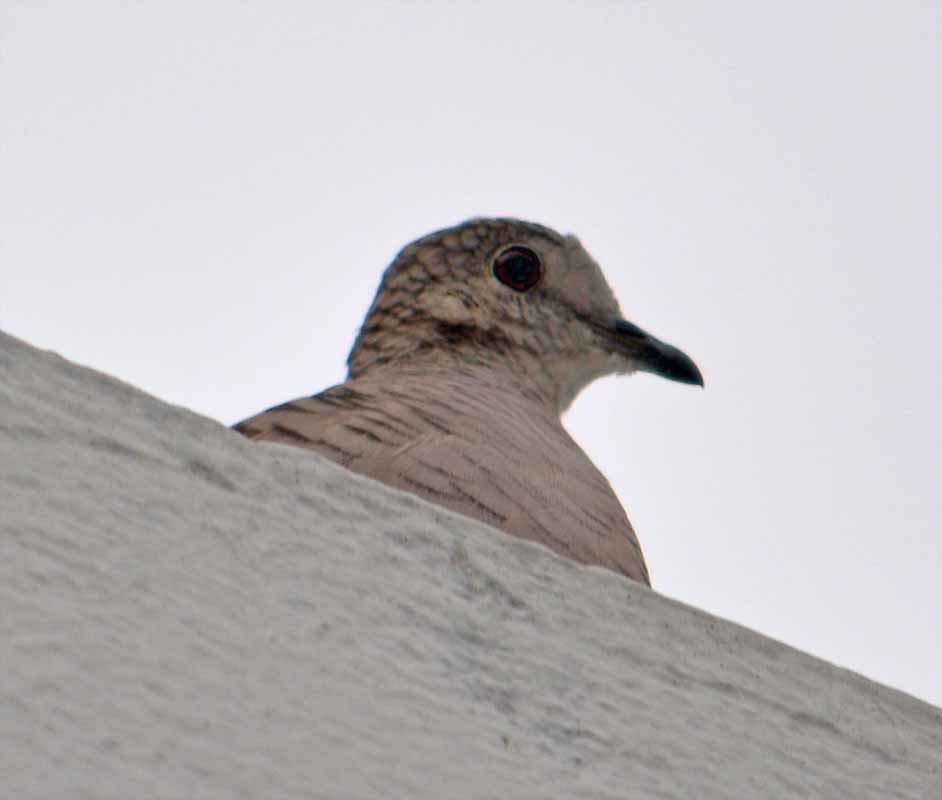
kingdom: Animalia
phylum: Chordata
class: Aves
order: Columbiformes
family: Columbidae
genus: Columbina
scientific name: Columbina inca
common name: Inca dove
